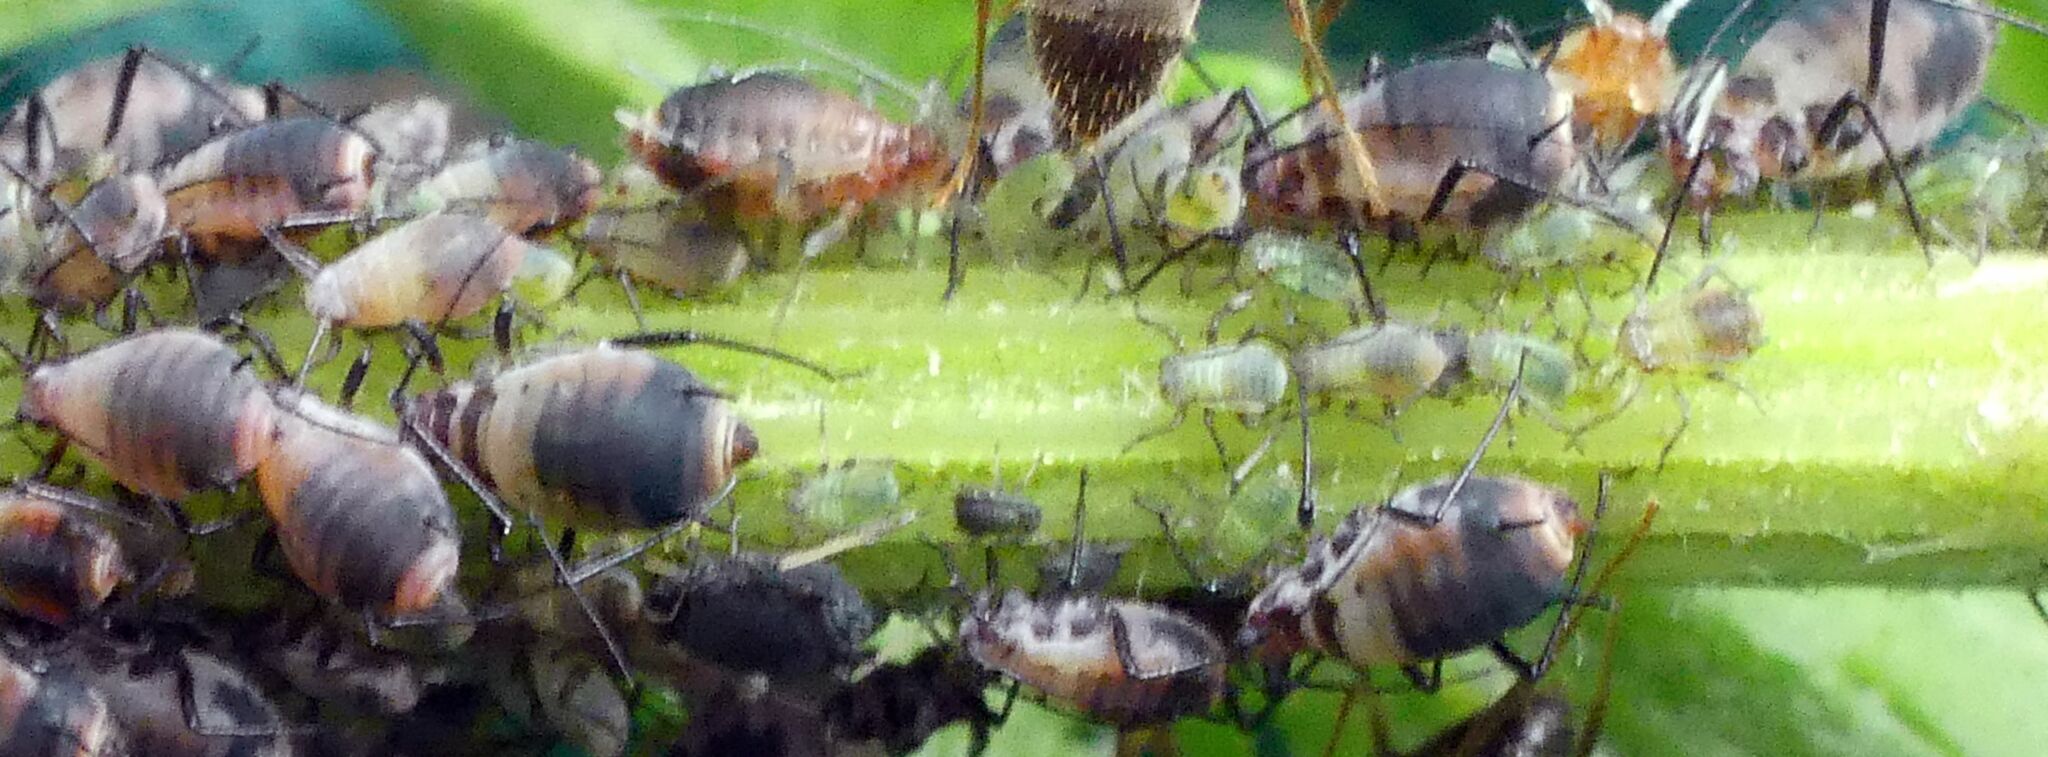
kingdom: Animalia
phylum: Arthropoda
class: Insecta
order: Hemiptera
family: Aphididae
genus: Metopeurum
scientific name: Metopeurum fuscoviride
